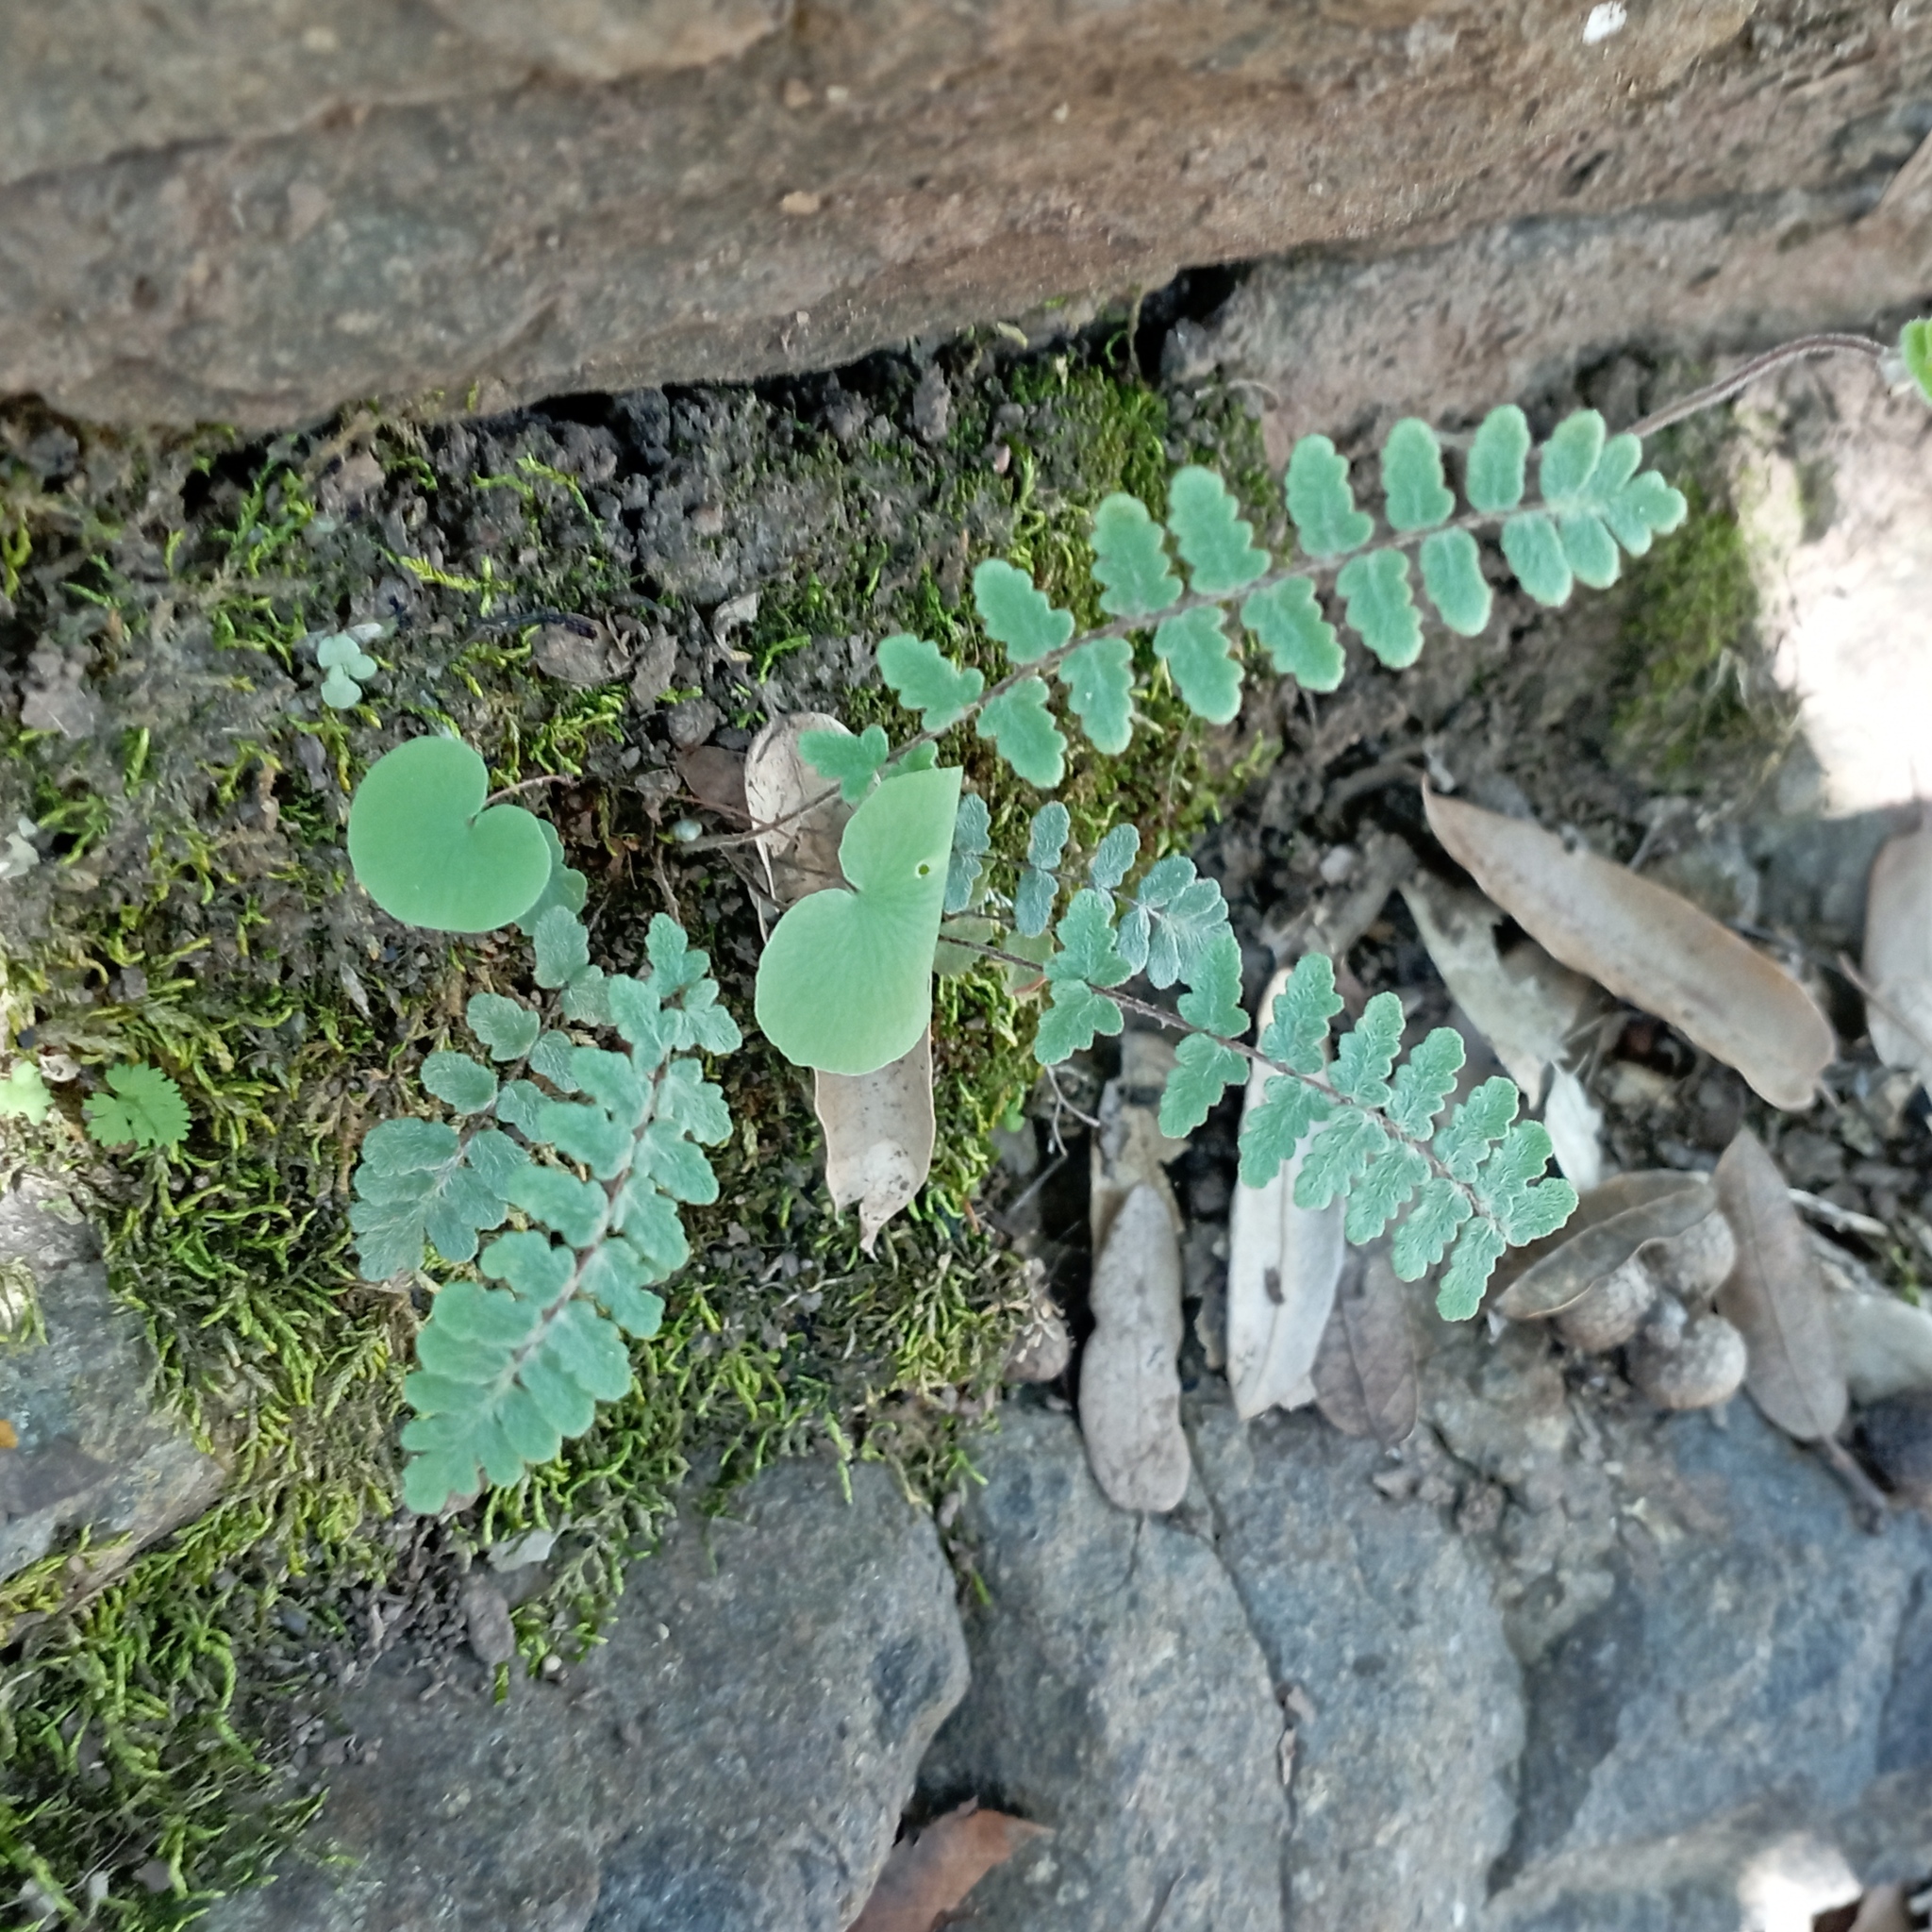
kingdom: Plantae
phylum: Tracheophyta
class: Polypodiopsida
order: Polypodiales
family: Pteridaceae
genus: Myriopteris
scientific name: Myriopteris aurea
